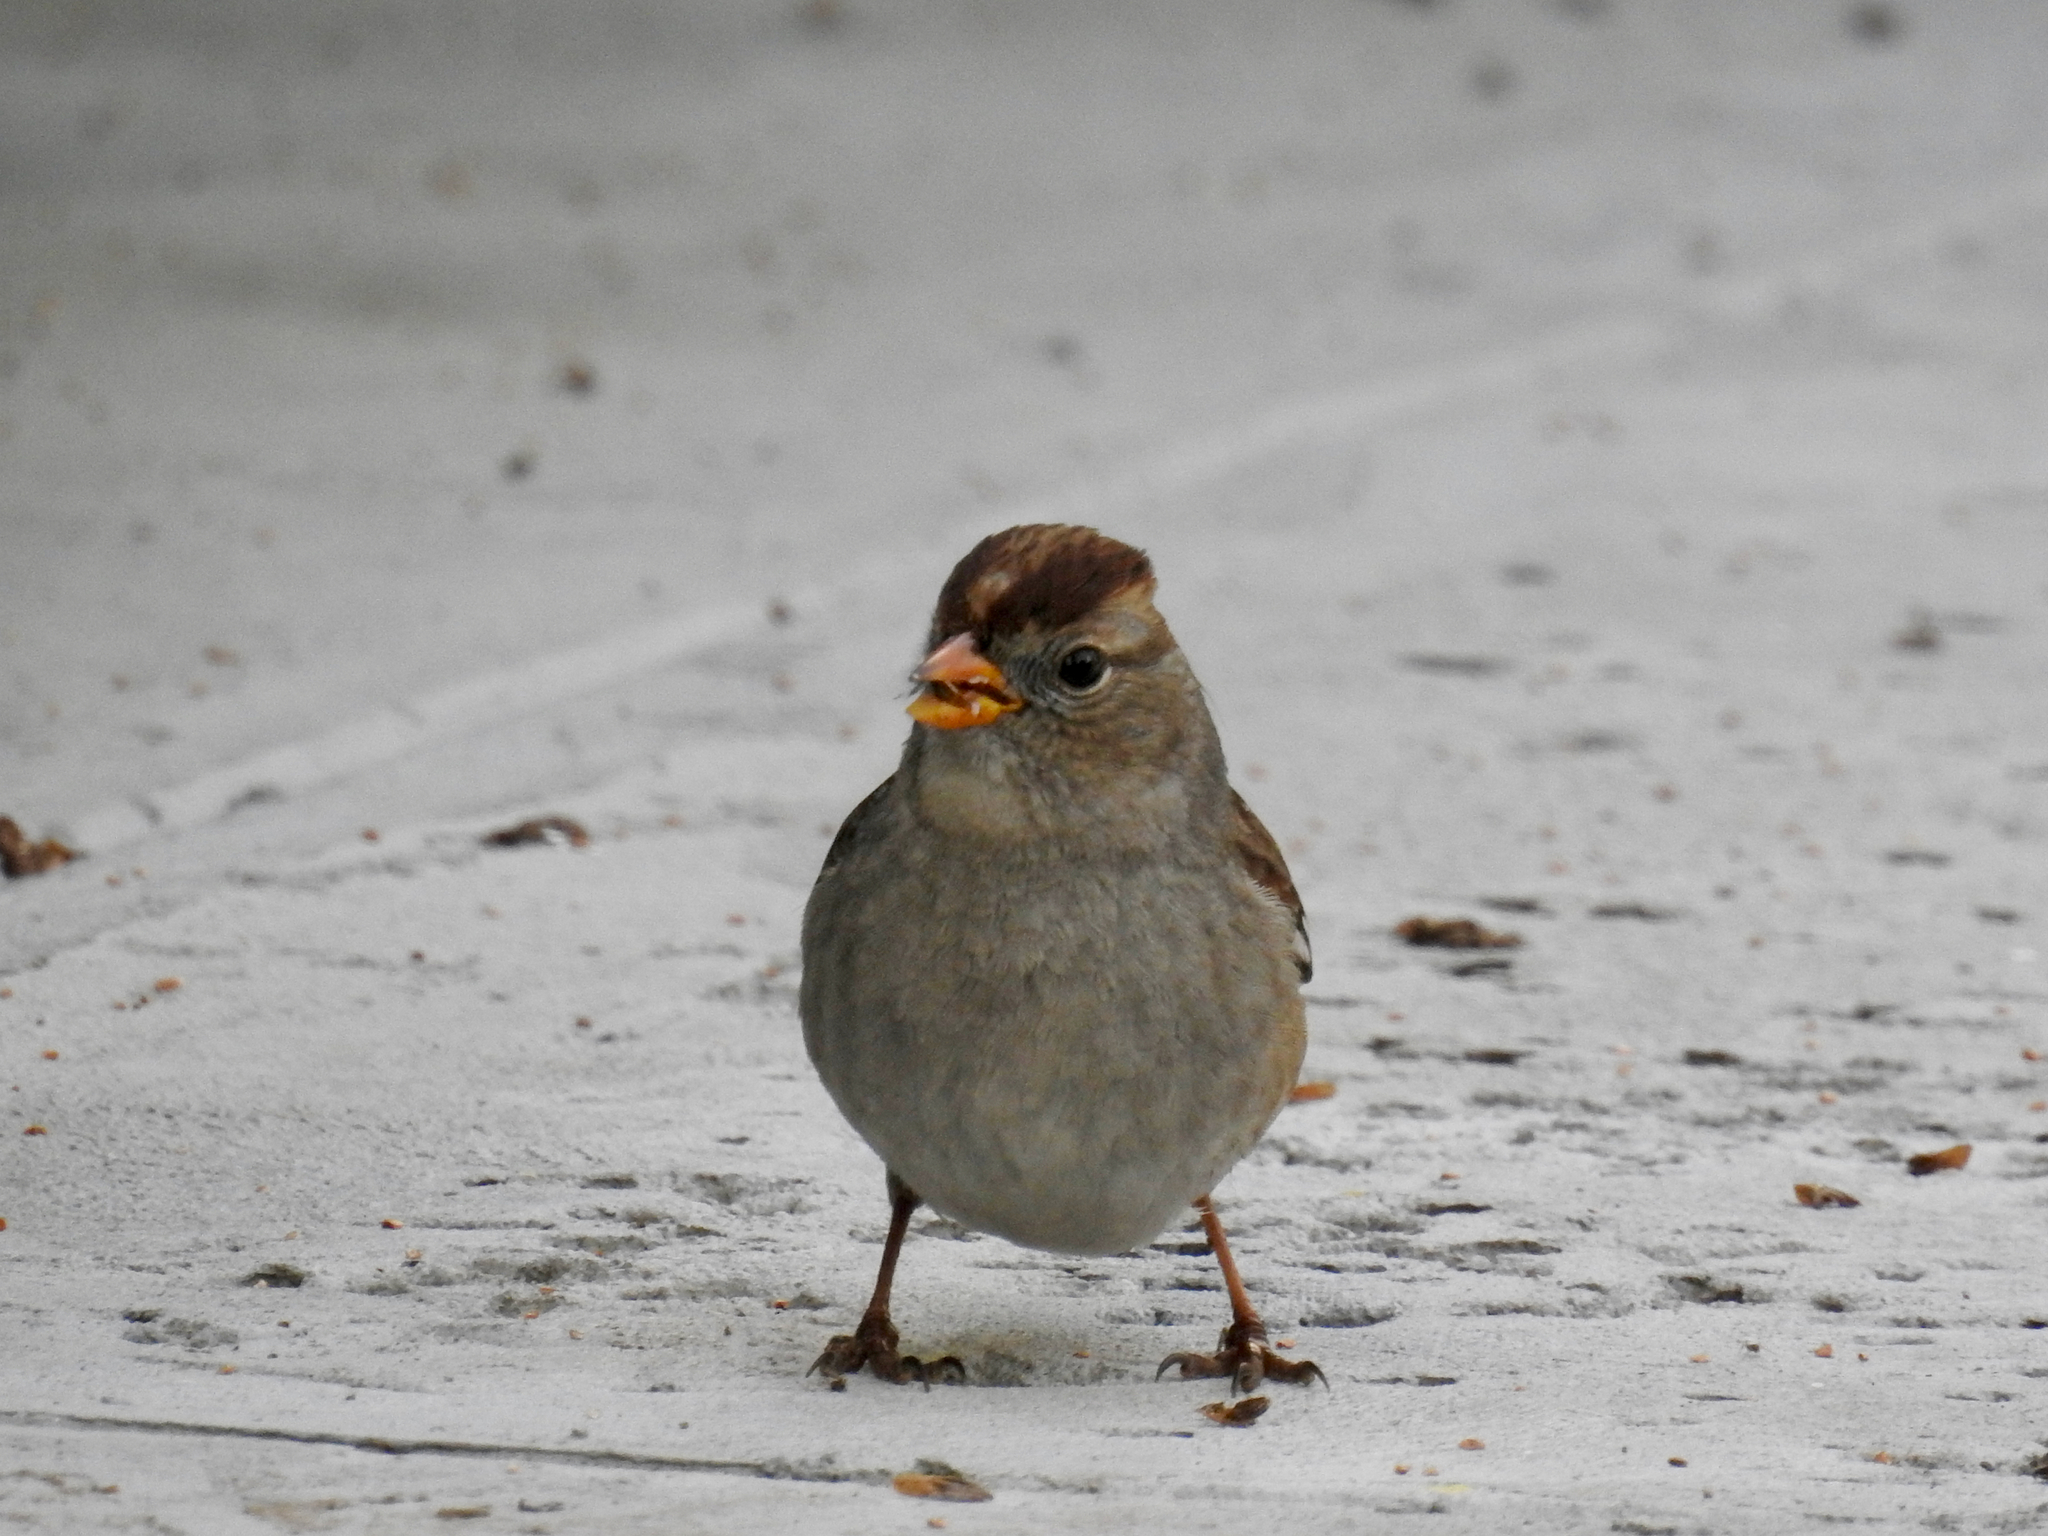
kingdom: Animalia
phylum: Chordata
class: Aves
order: Passeriformes
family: Passerellidae
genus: Zonotrichia
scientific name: Zonotrichia leucophrys
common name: White-crowned sparrow
